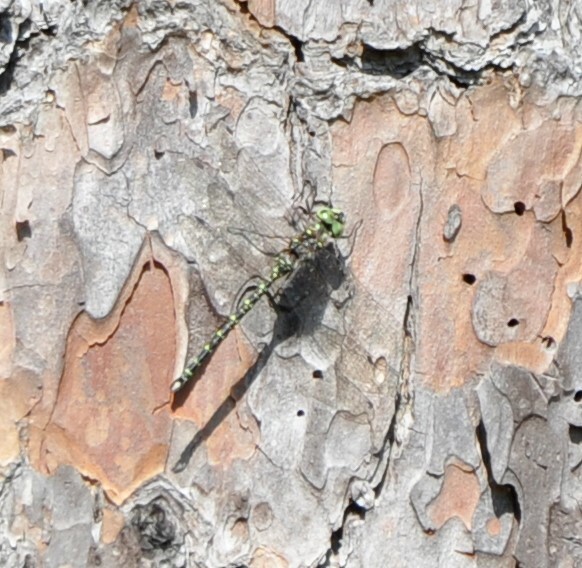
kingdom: Animalia
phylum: Arthropoda
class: Insecta
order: Odonata
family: Aeshnidae
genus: Gomphaeschna
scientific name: Gomphaeschna furcillata
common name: Harlequin darner
